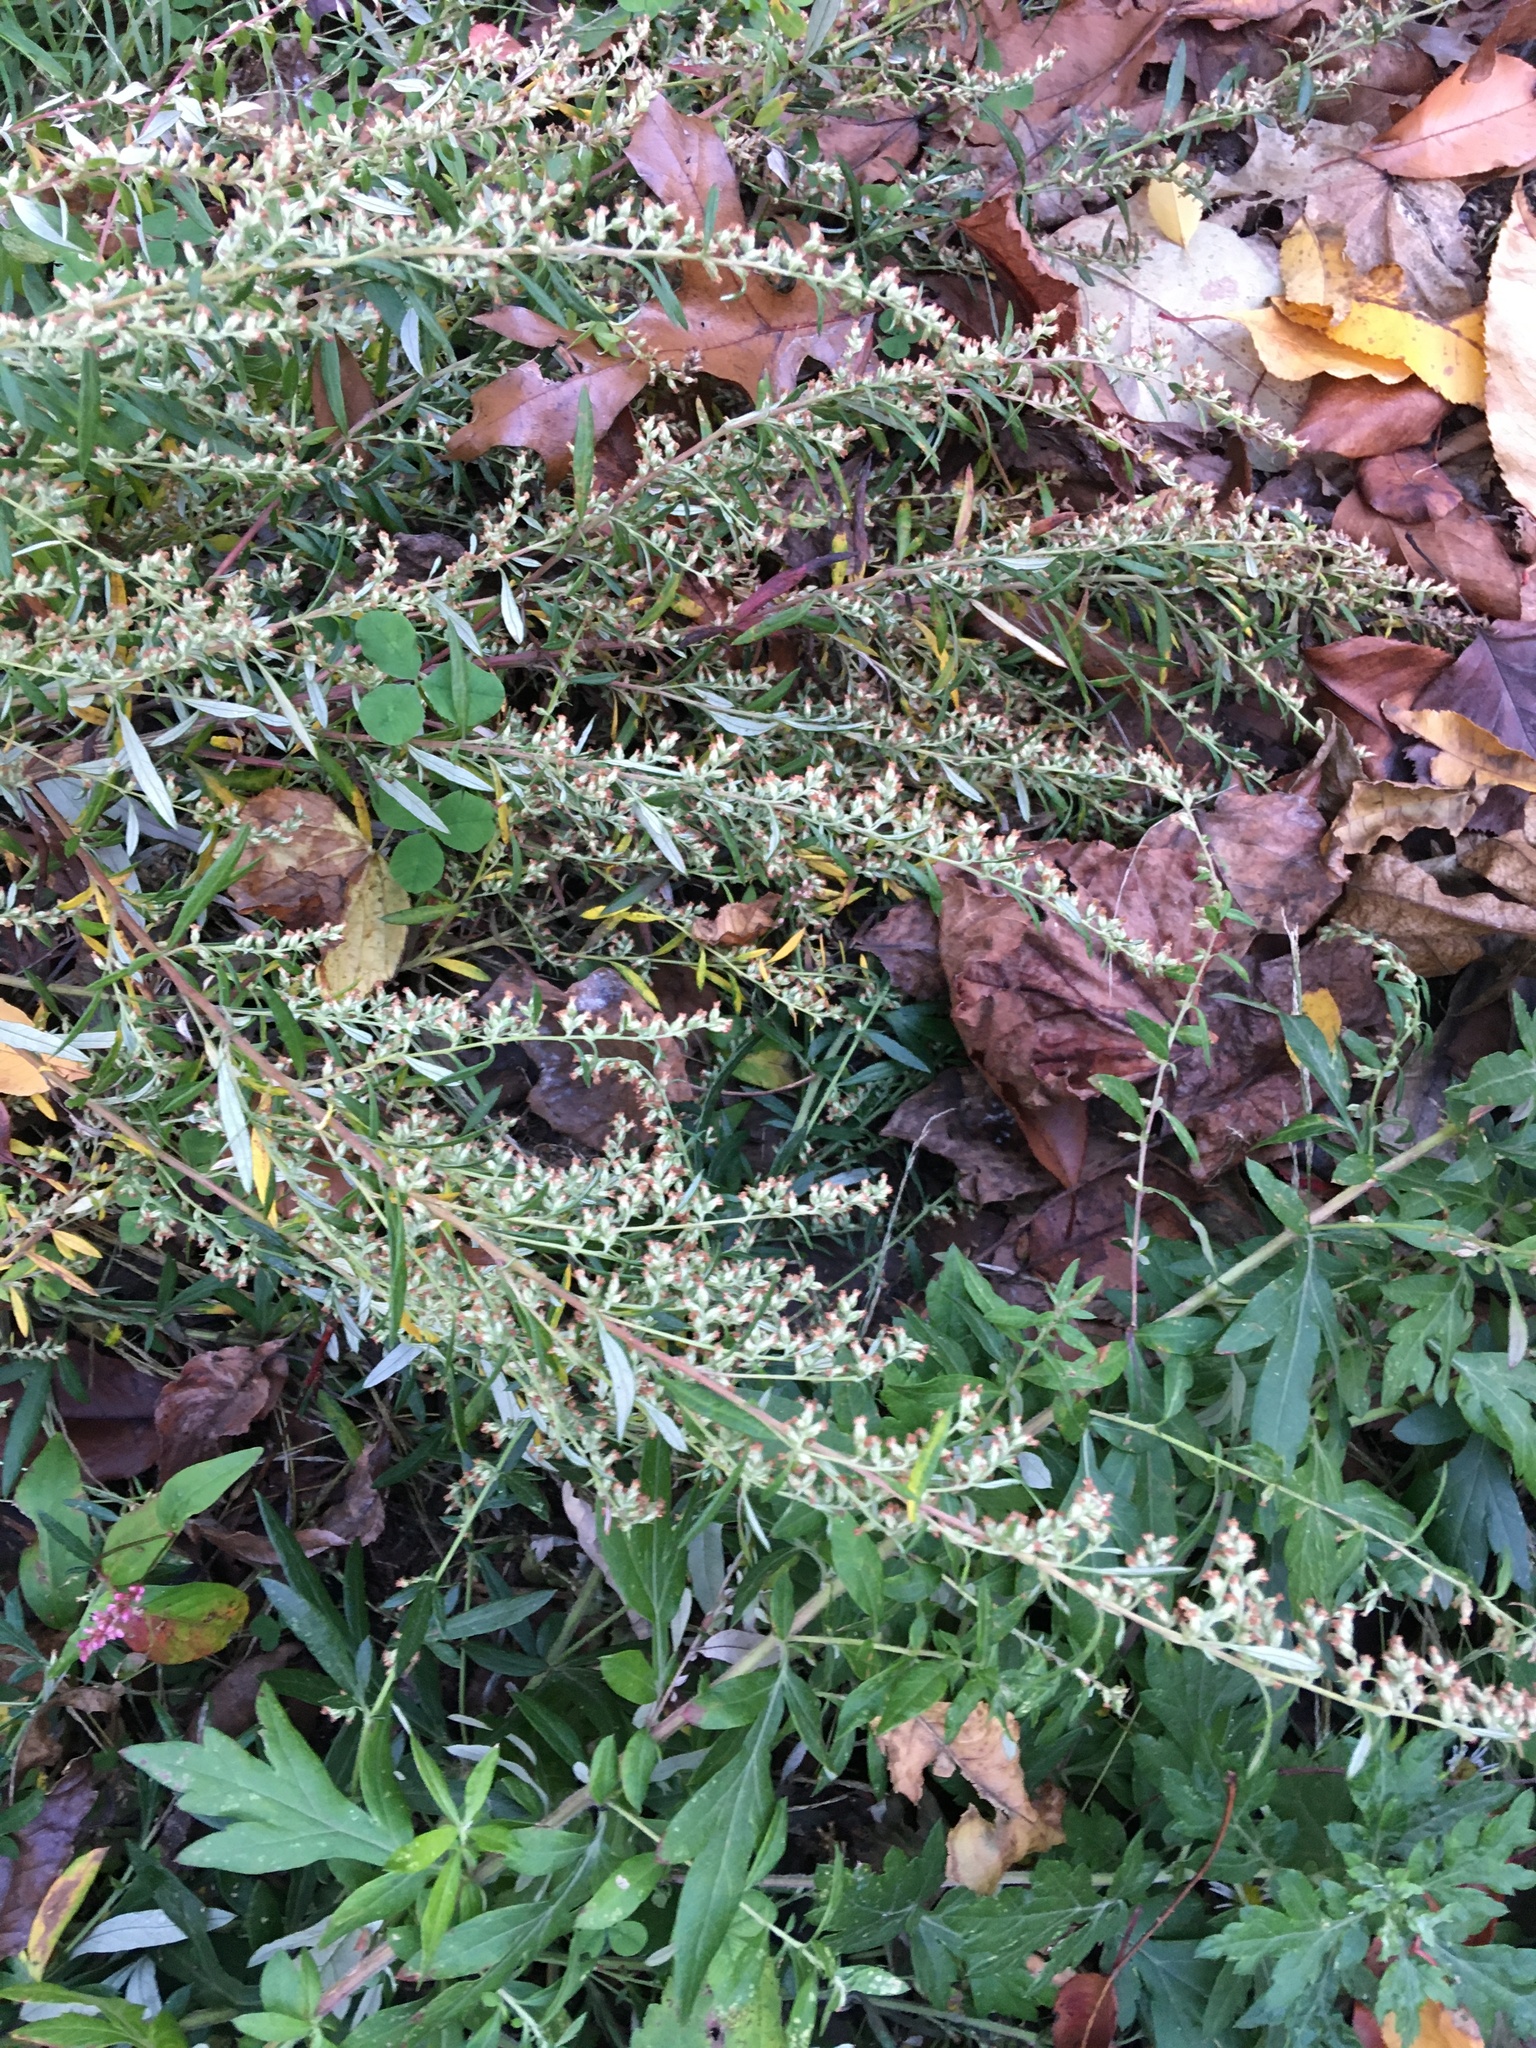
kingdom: Plantae
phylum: Tracheophyta
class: Magnoliopsida
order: Asterales
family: Asteraceae
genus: Artemisia
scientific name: Artemisia vulgaris
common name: Mugwort
